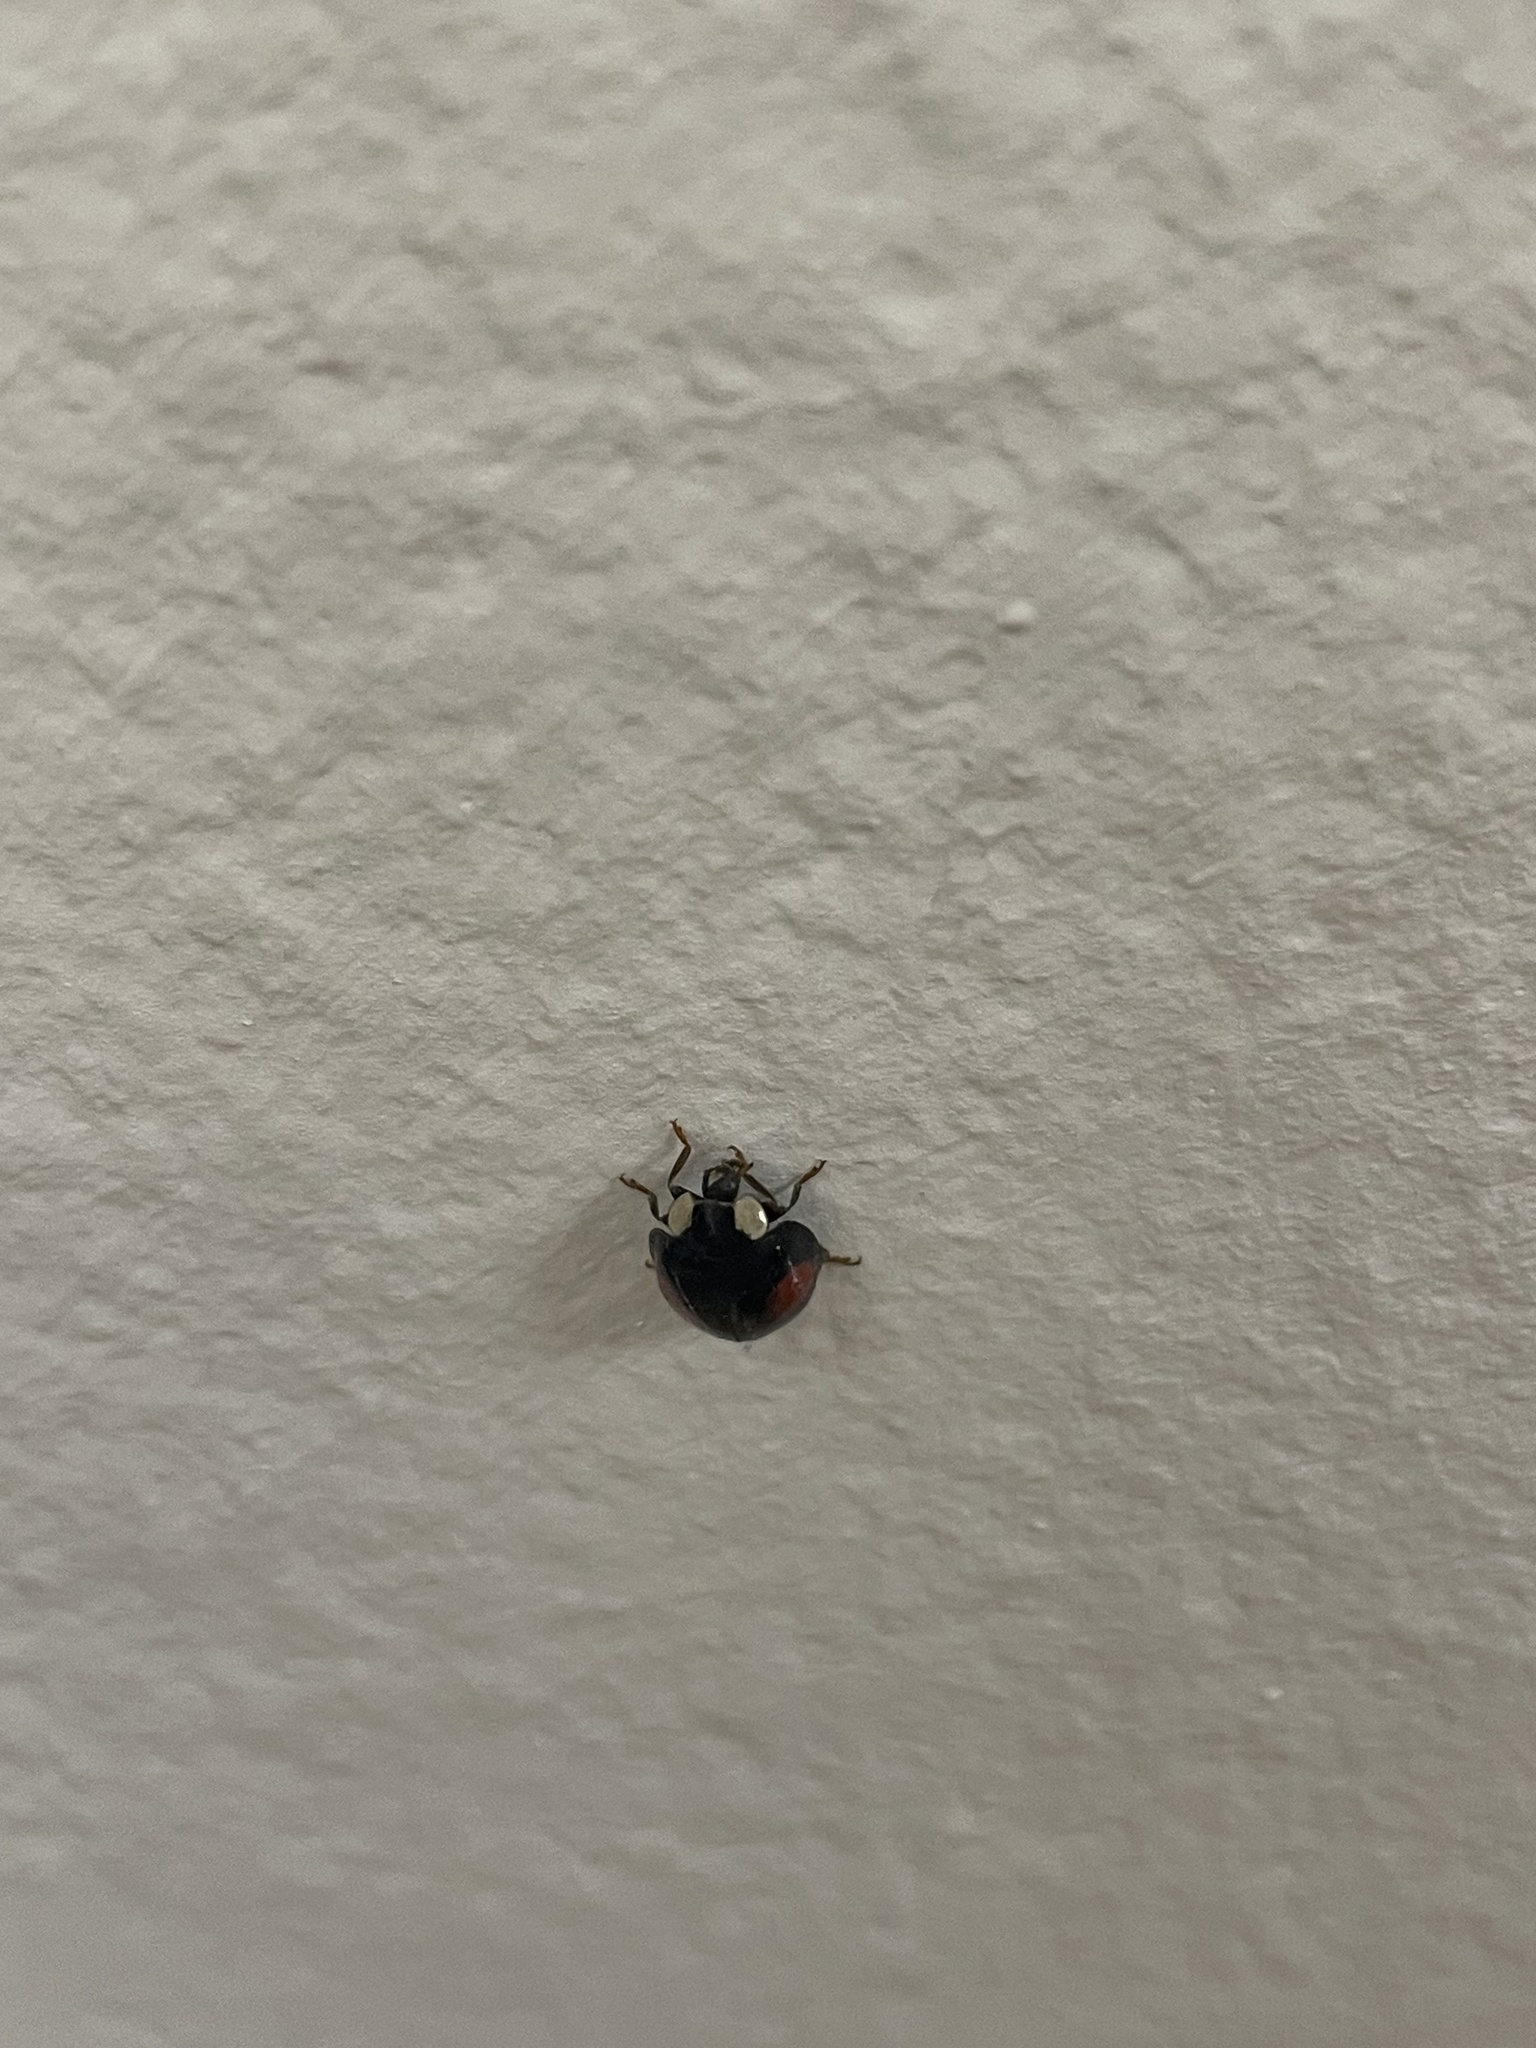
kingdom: Animalia
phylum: Arthropoda
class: Insecta
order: Coleoptera
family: Coccinellidae
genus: Harmonia
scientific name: Harmonia axyridis
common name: Harlequin ladybird
